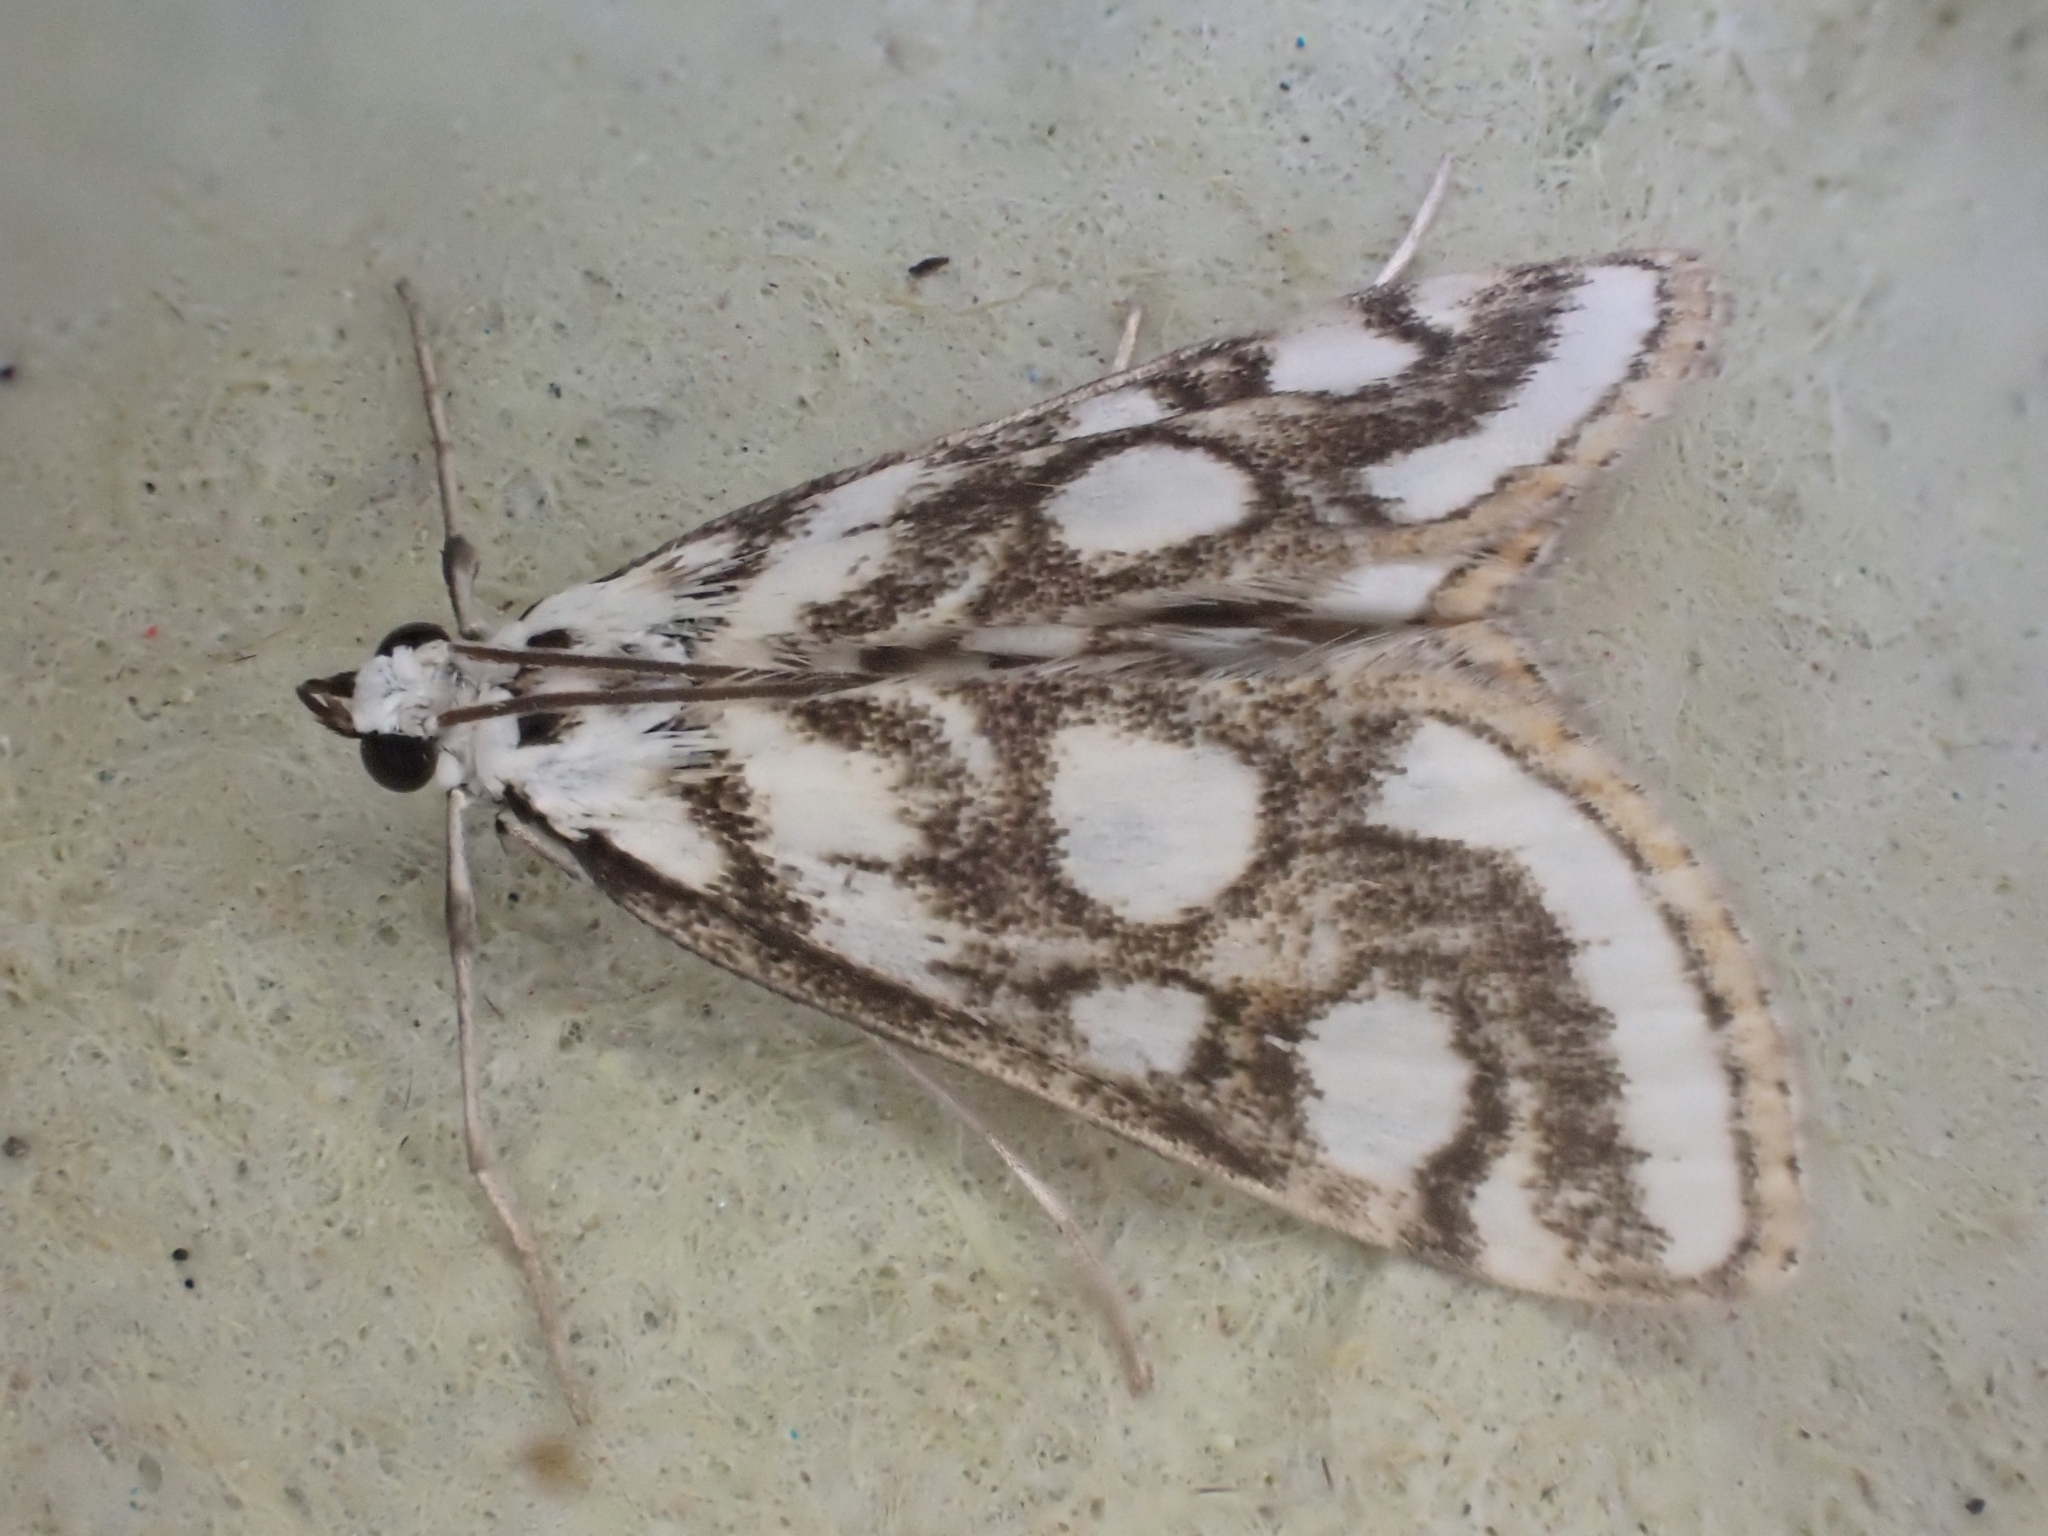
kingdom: Animalia
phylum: Arthropoda
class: Insecta
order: Lepidoptera
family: Crambidae
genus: Nymphula
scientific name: Nymphula nitidulata
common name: Beautiful china mark
